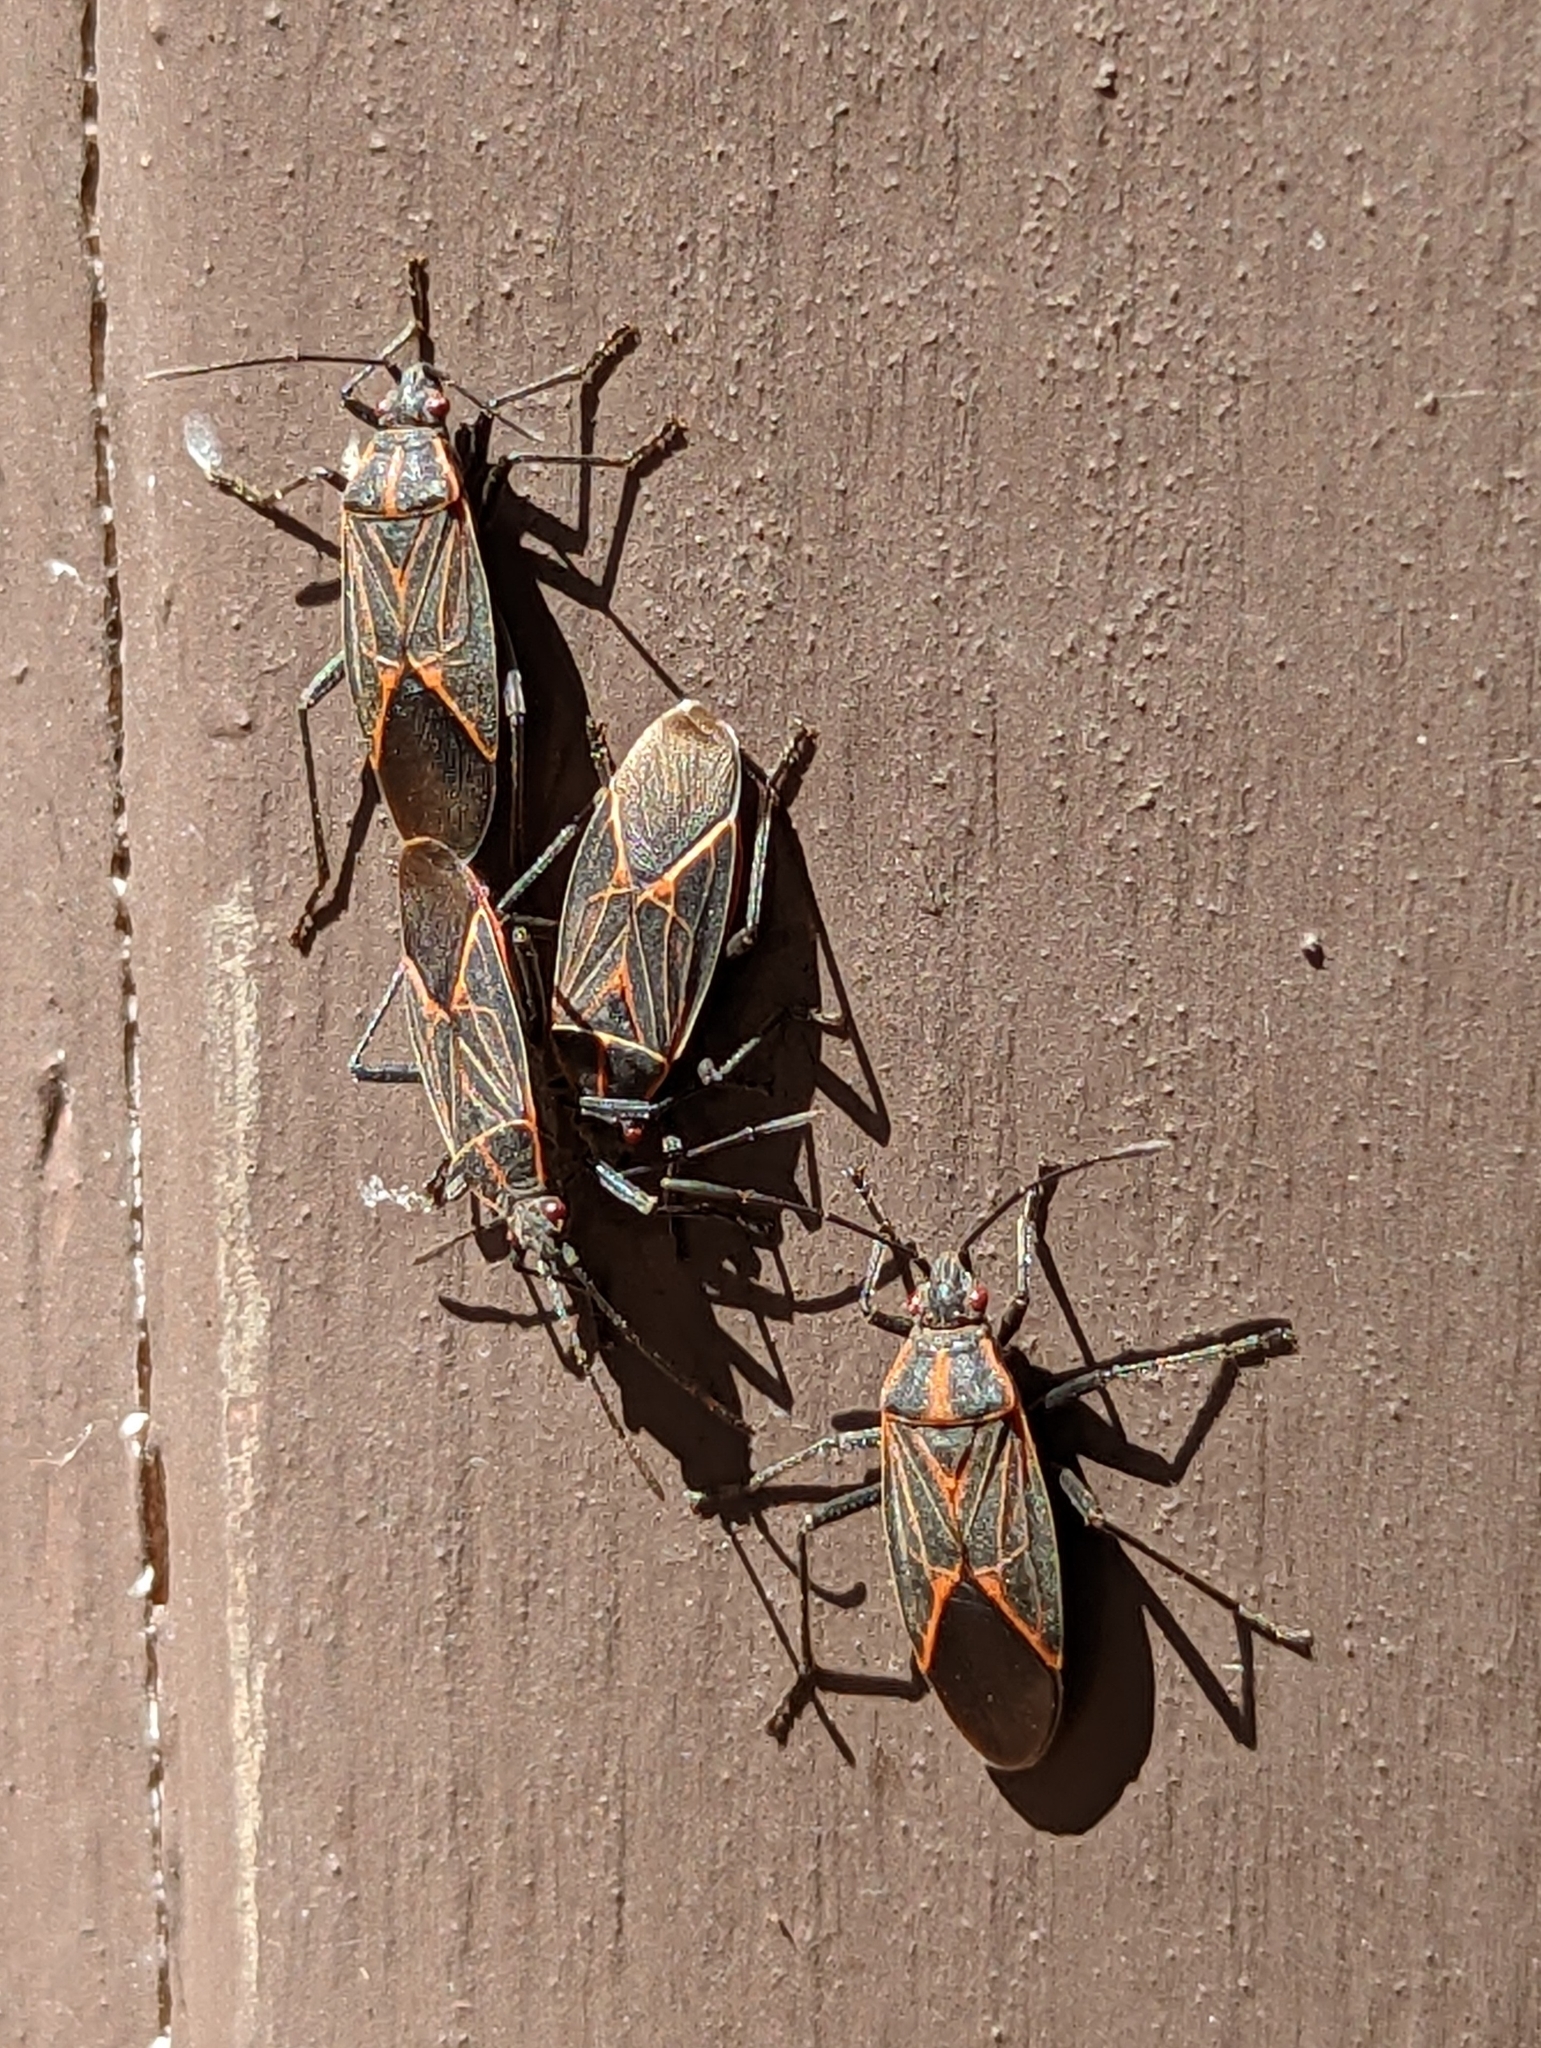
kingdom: Animalia
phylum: Arthropoda
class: Insecta
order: Hemiptera
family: Rhopalidae
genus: Boisea
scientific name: Boisea rubrolineata
